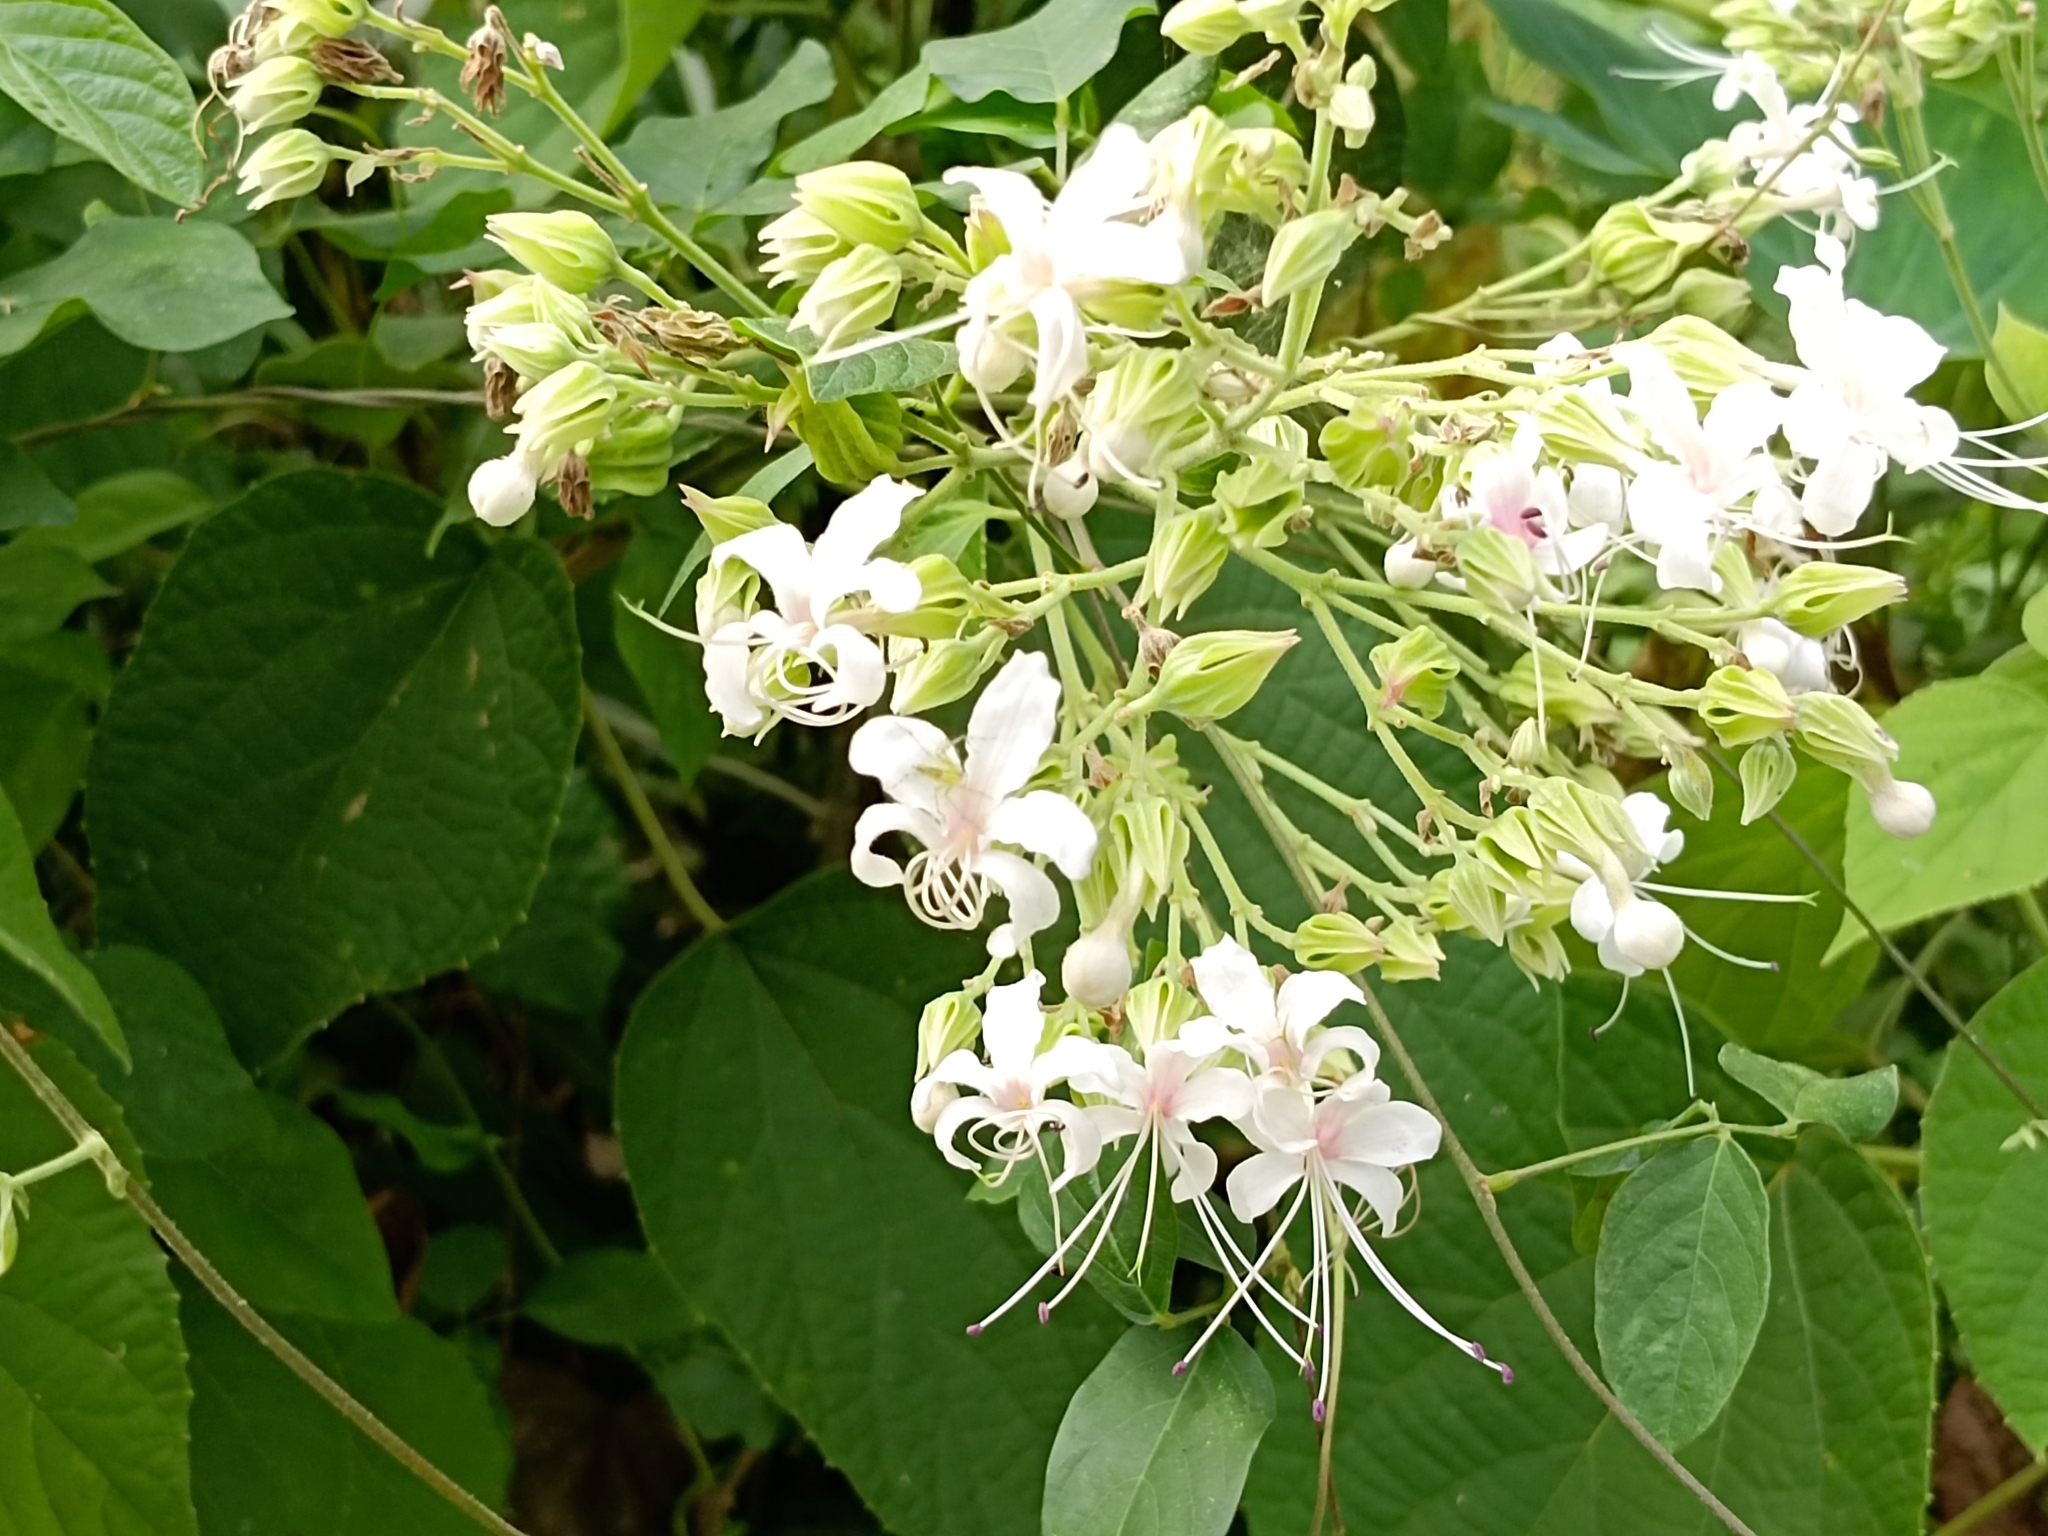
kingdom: Plantae
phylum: Tracheophyta
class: Magnoliopsida
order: Lamiales
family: Lamiaceae
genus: Clerodendrum
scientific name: Clerodendrum infortunatum
